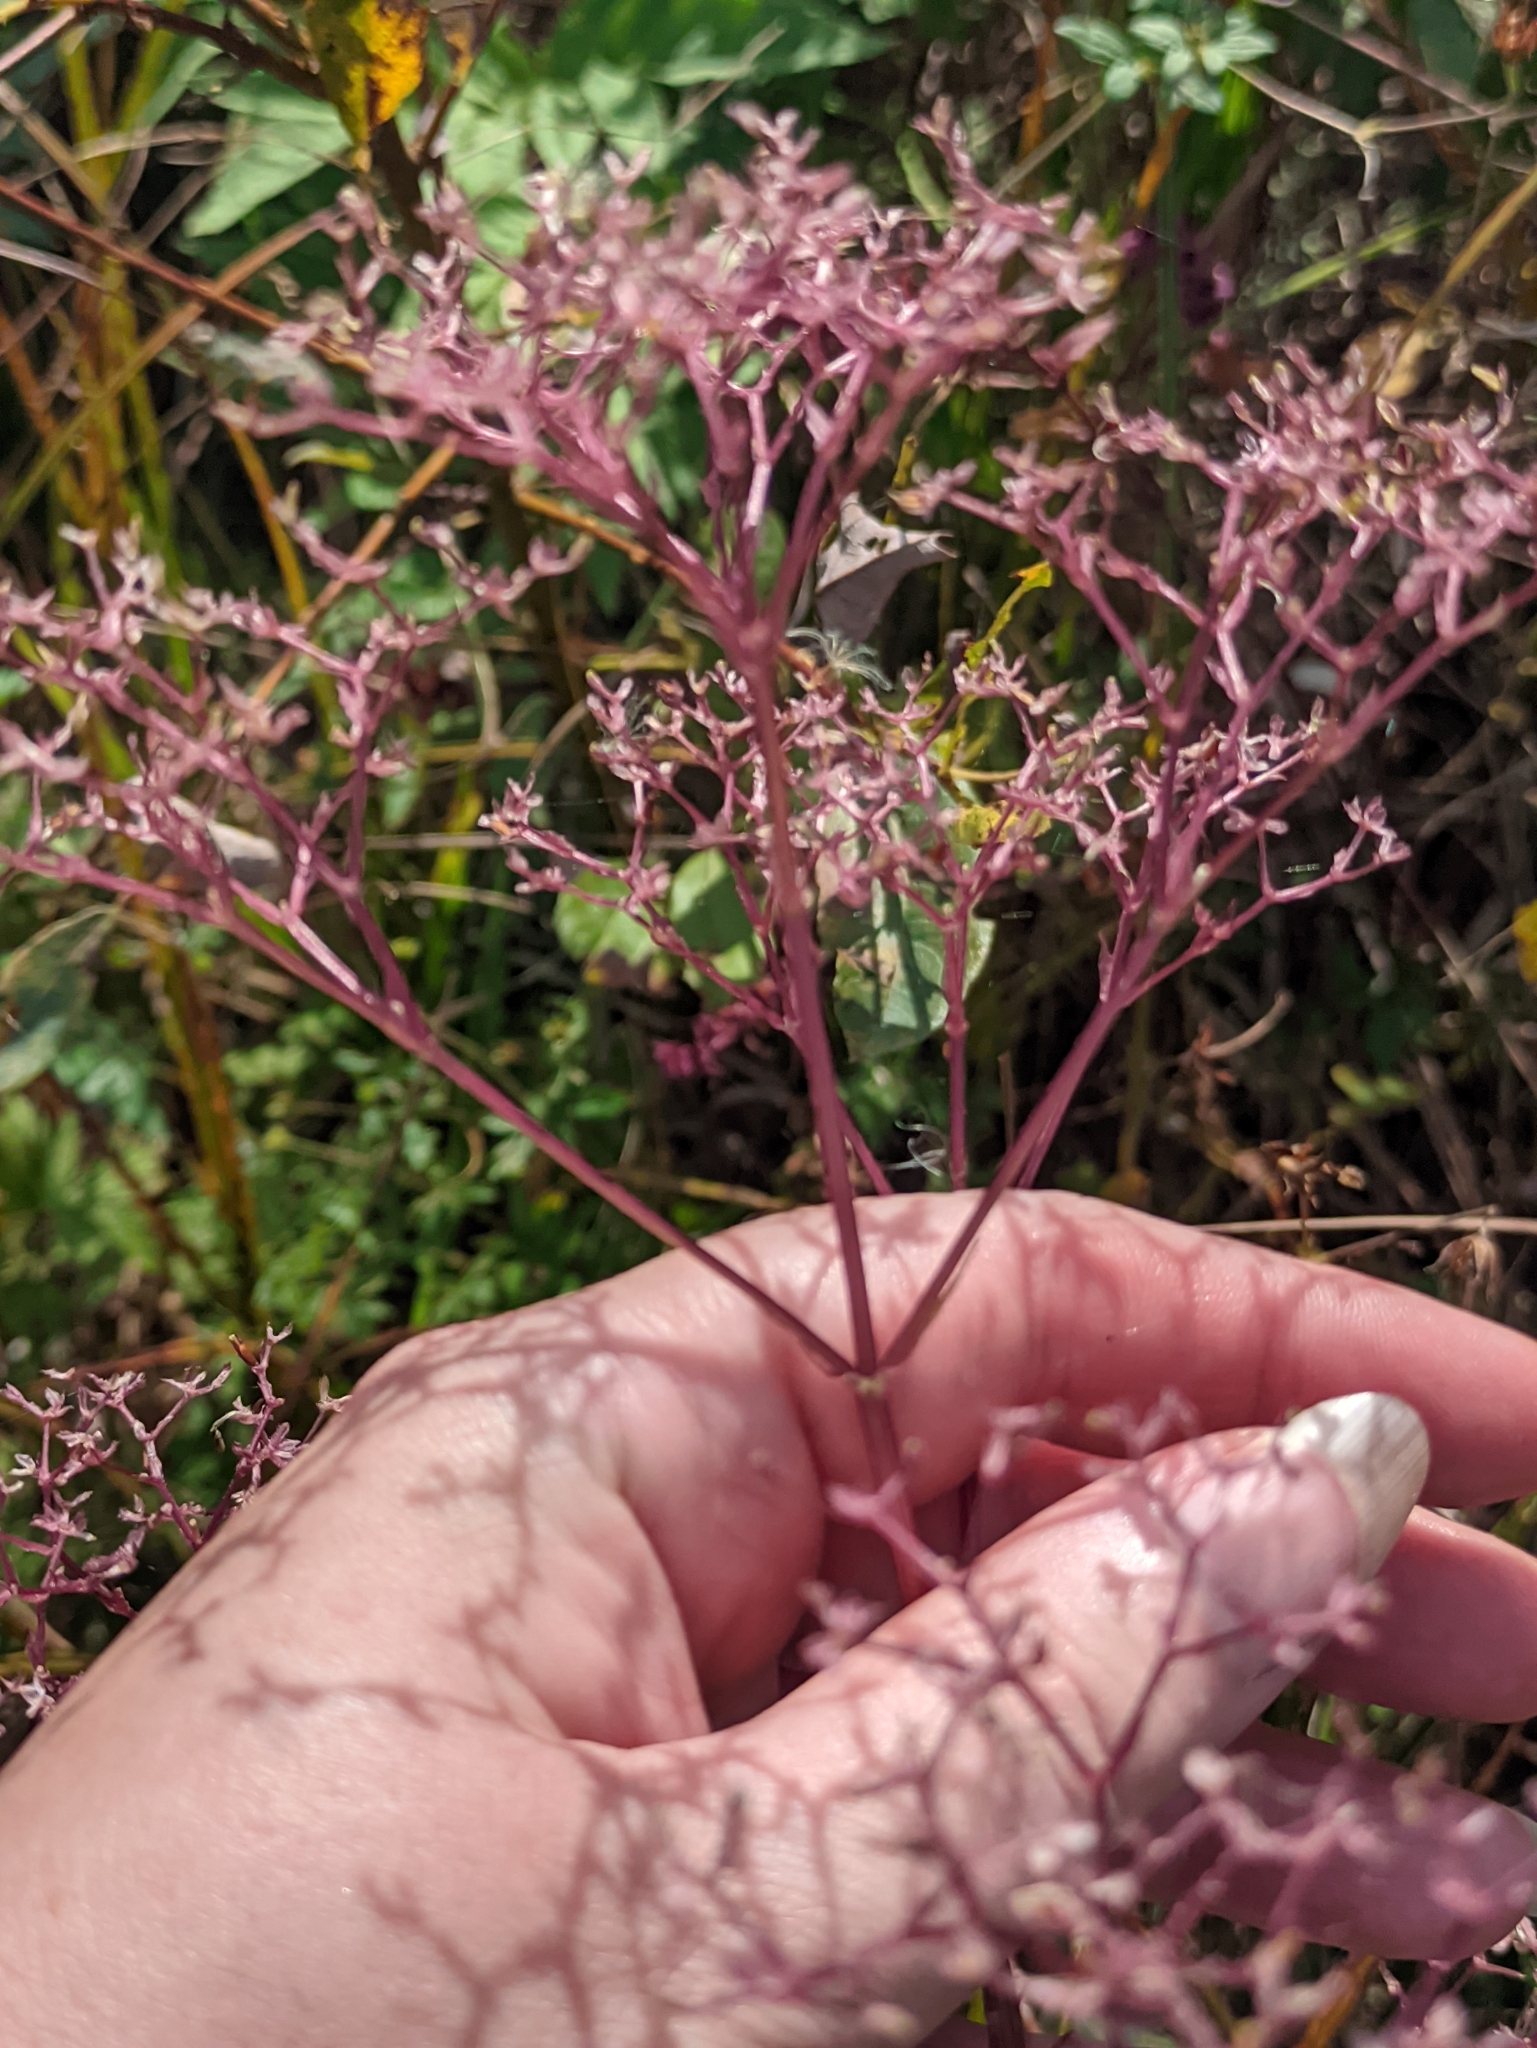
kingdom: Plantae
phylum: Tracheophyta
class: Magnoliopsida
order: Dipsacales
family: Caprifoliaceae
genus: Valeriana
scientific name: Valeriana officinalis
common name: Common valerian
